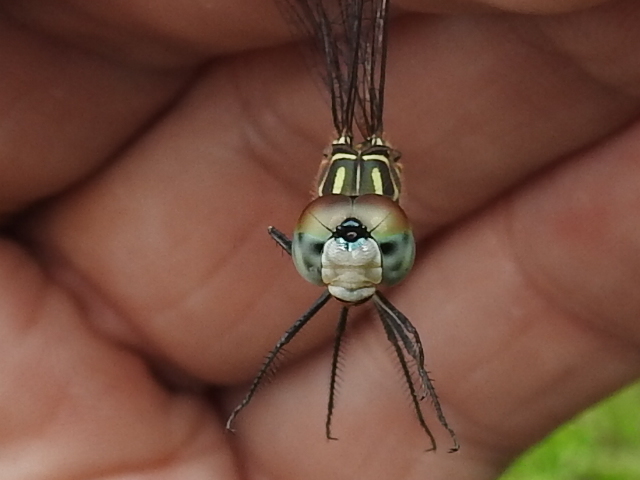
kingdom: Animalia
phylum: Arthropoda
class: Insecta
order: Odonata
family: Libellulidae
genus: Pachydiplax
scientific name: Pachydiplax longipennis
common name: Blue dasher
